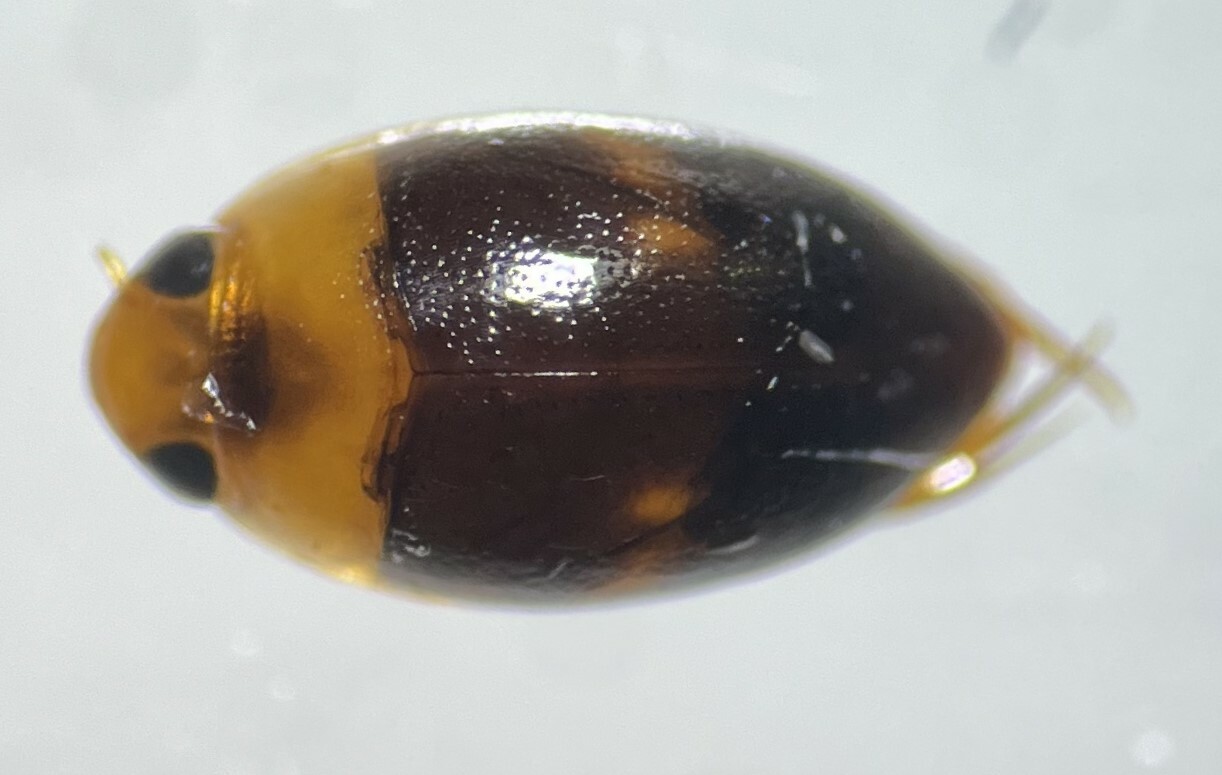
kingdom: Animalia
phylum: Arthropoda
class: Insecta
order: Coleoptera
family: Noteridae
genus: Suphisellus
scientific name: Suphisellus puncticollis
